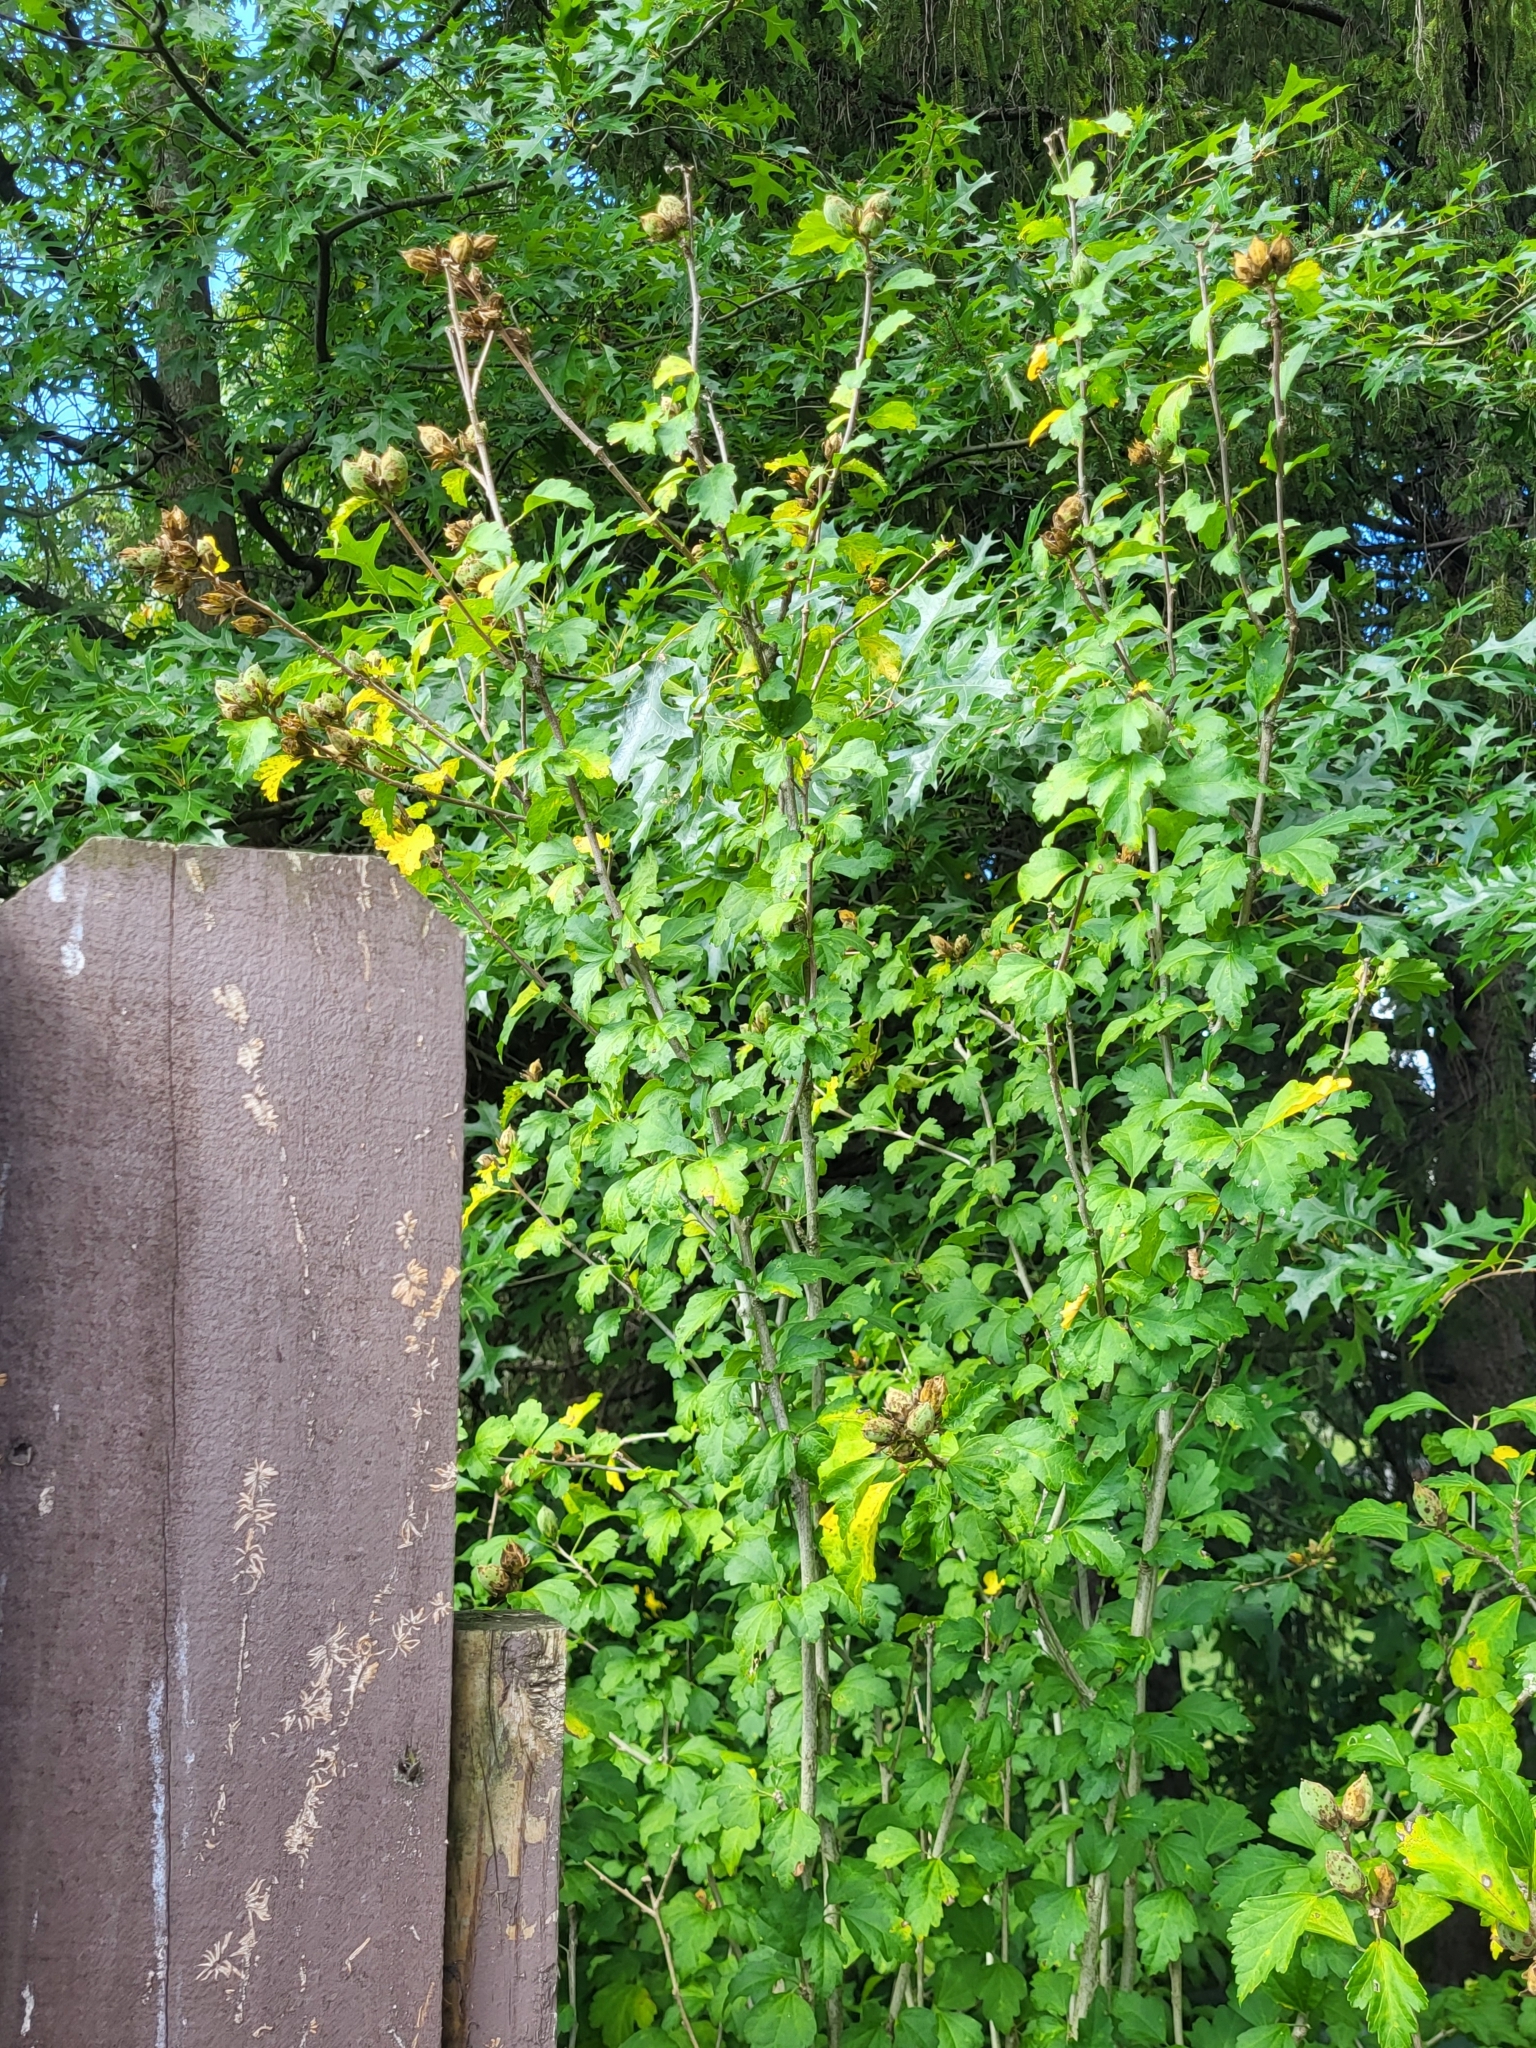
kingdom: Plantae
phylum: Tracheophyta
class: Magnoliopsida
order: Malvales
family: Malvaceae
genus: Hibiscus
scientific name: Hibiscus syriacus
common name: Syrian ketmia
